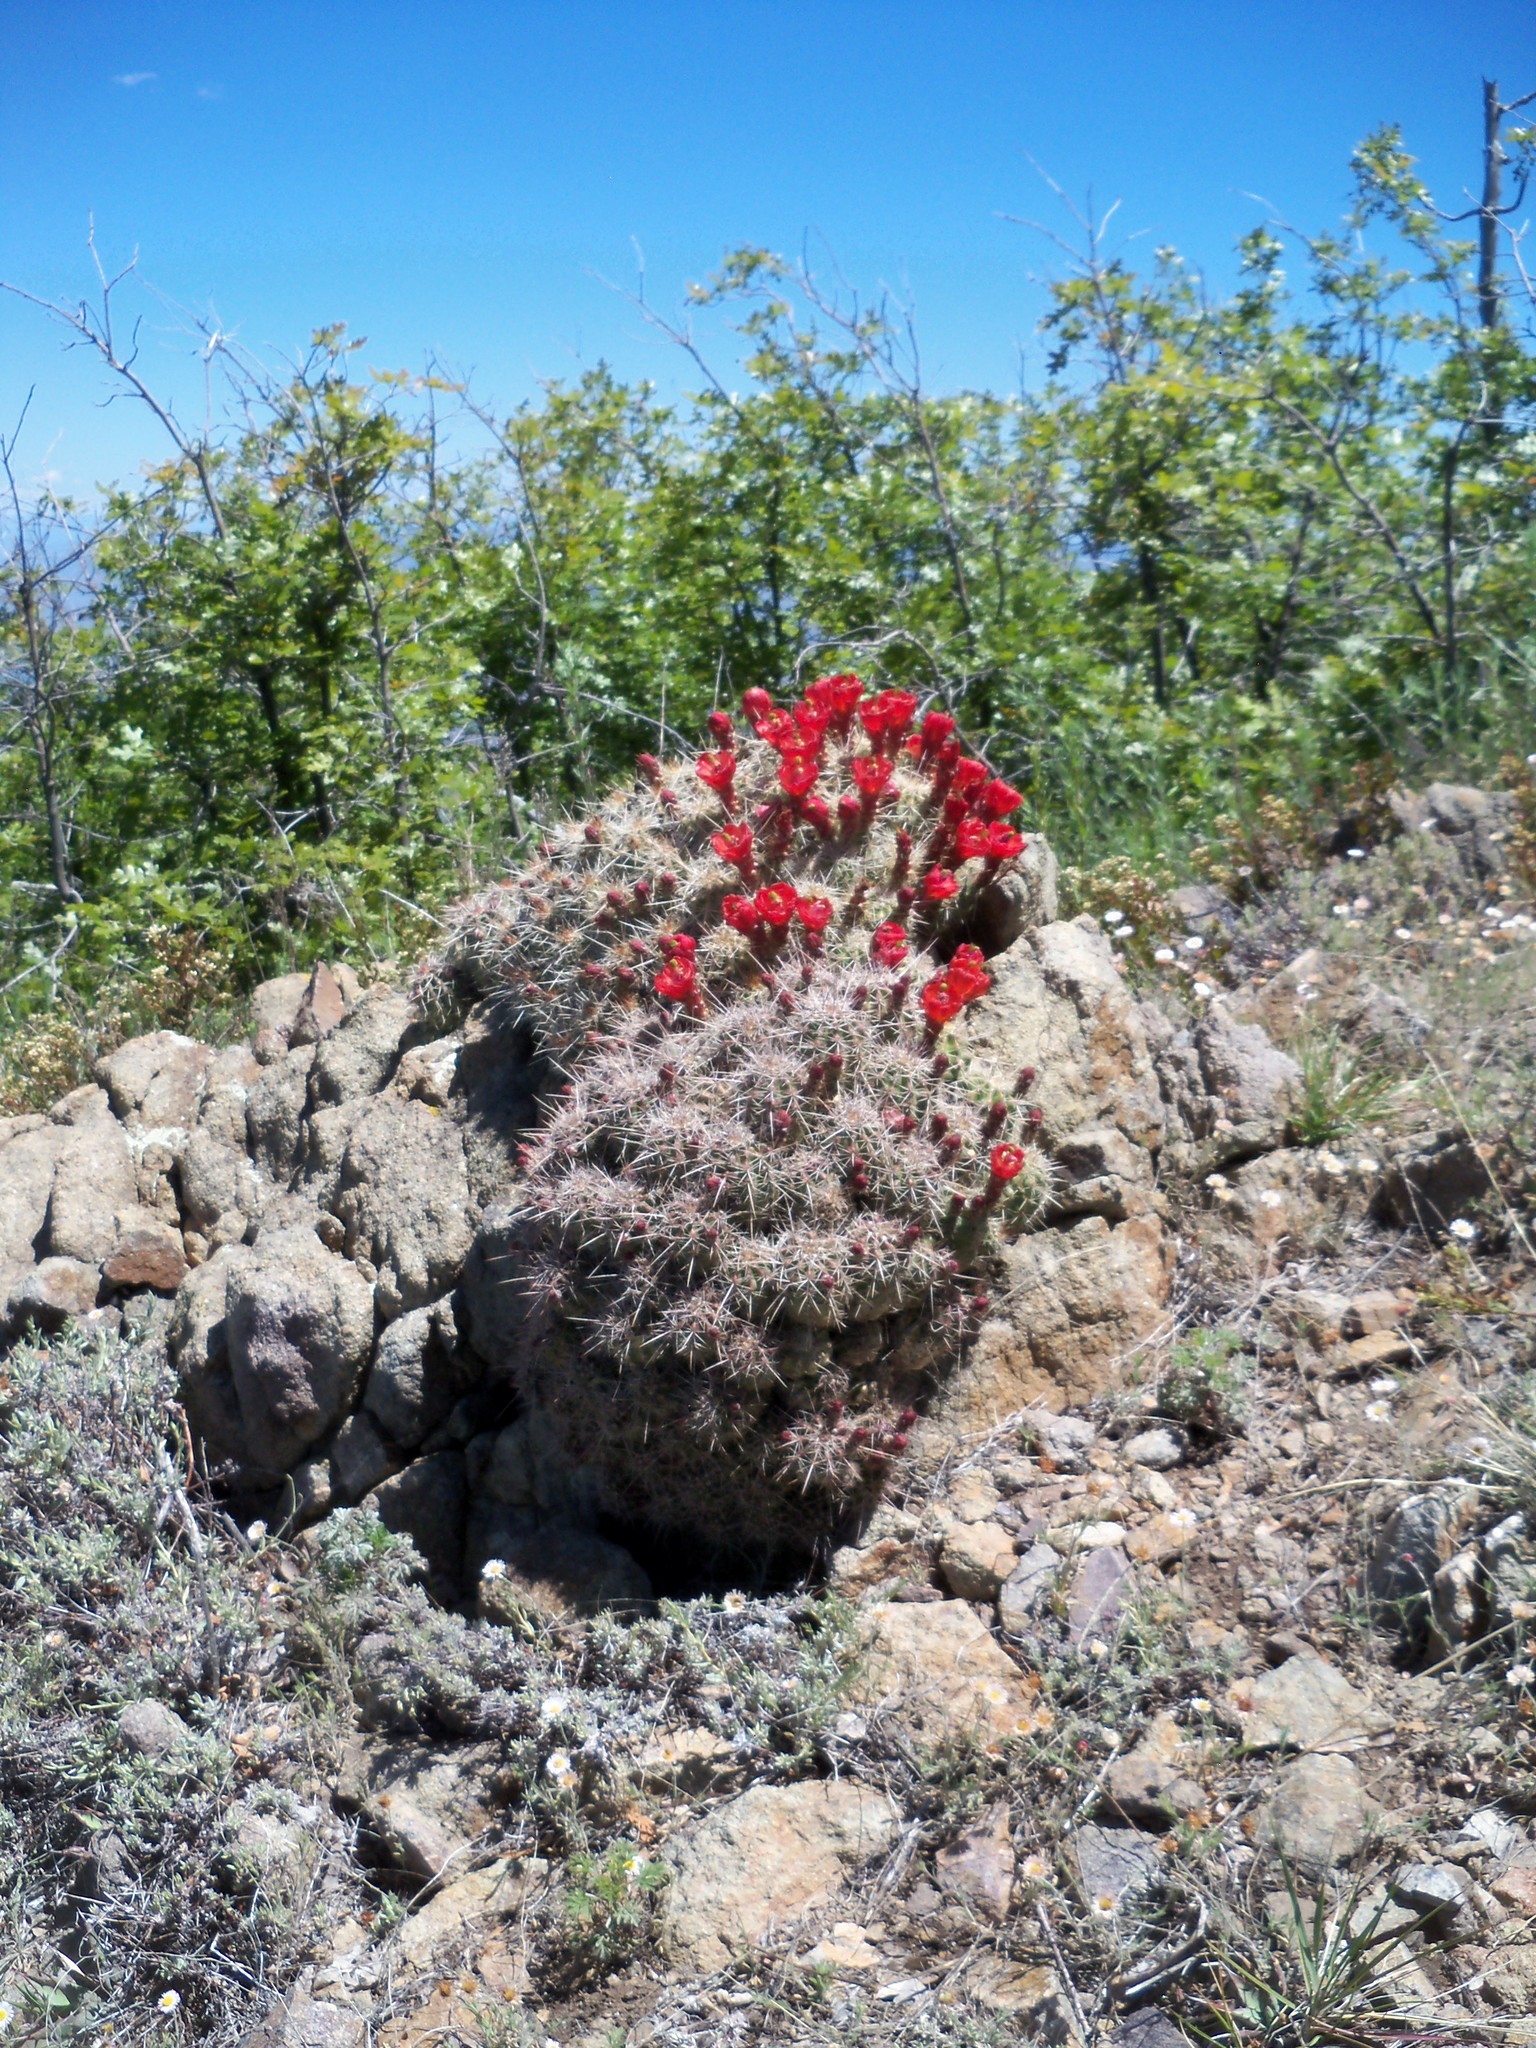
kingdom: Plantae
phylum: Tracheophyta
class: Magnoliopsida
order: Caryophyllales
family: Cactaceae
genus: Echinocereus
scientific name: Echinocereus bakeri
